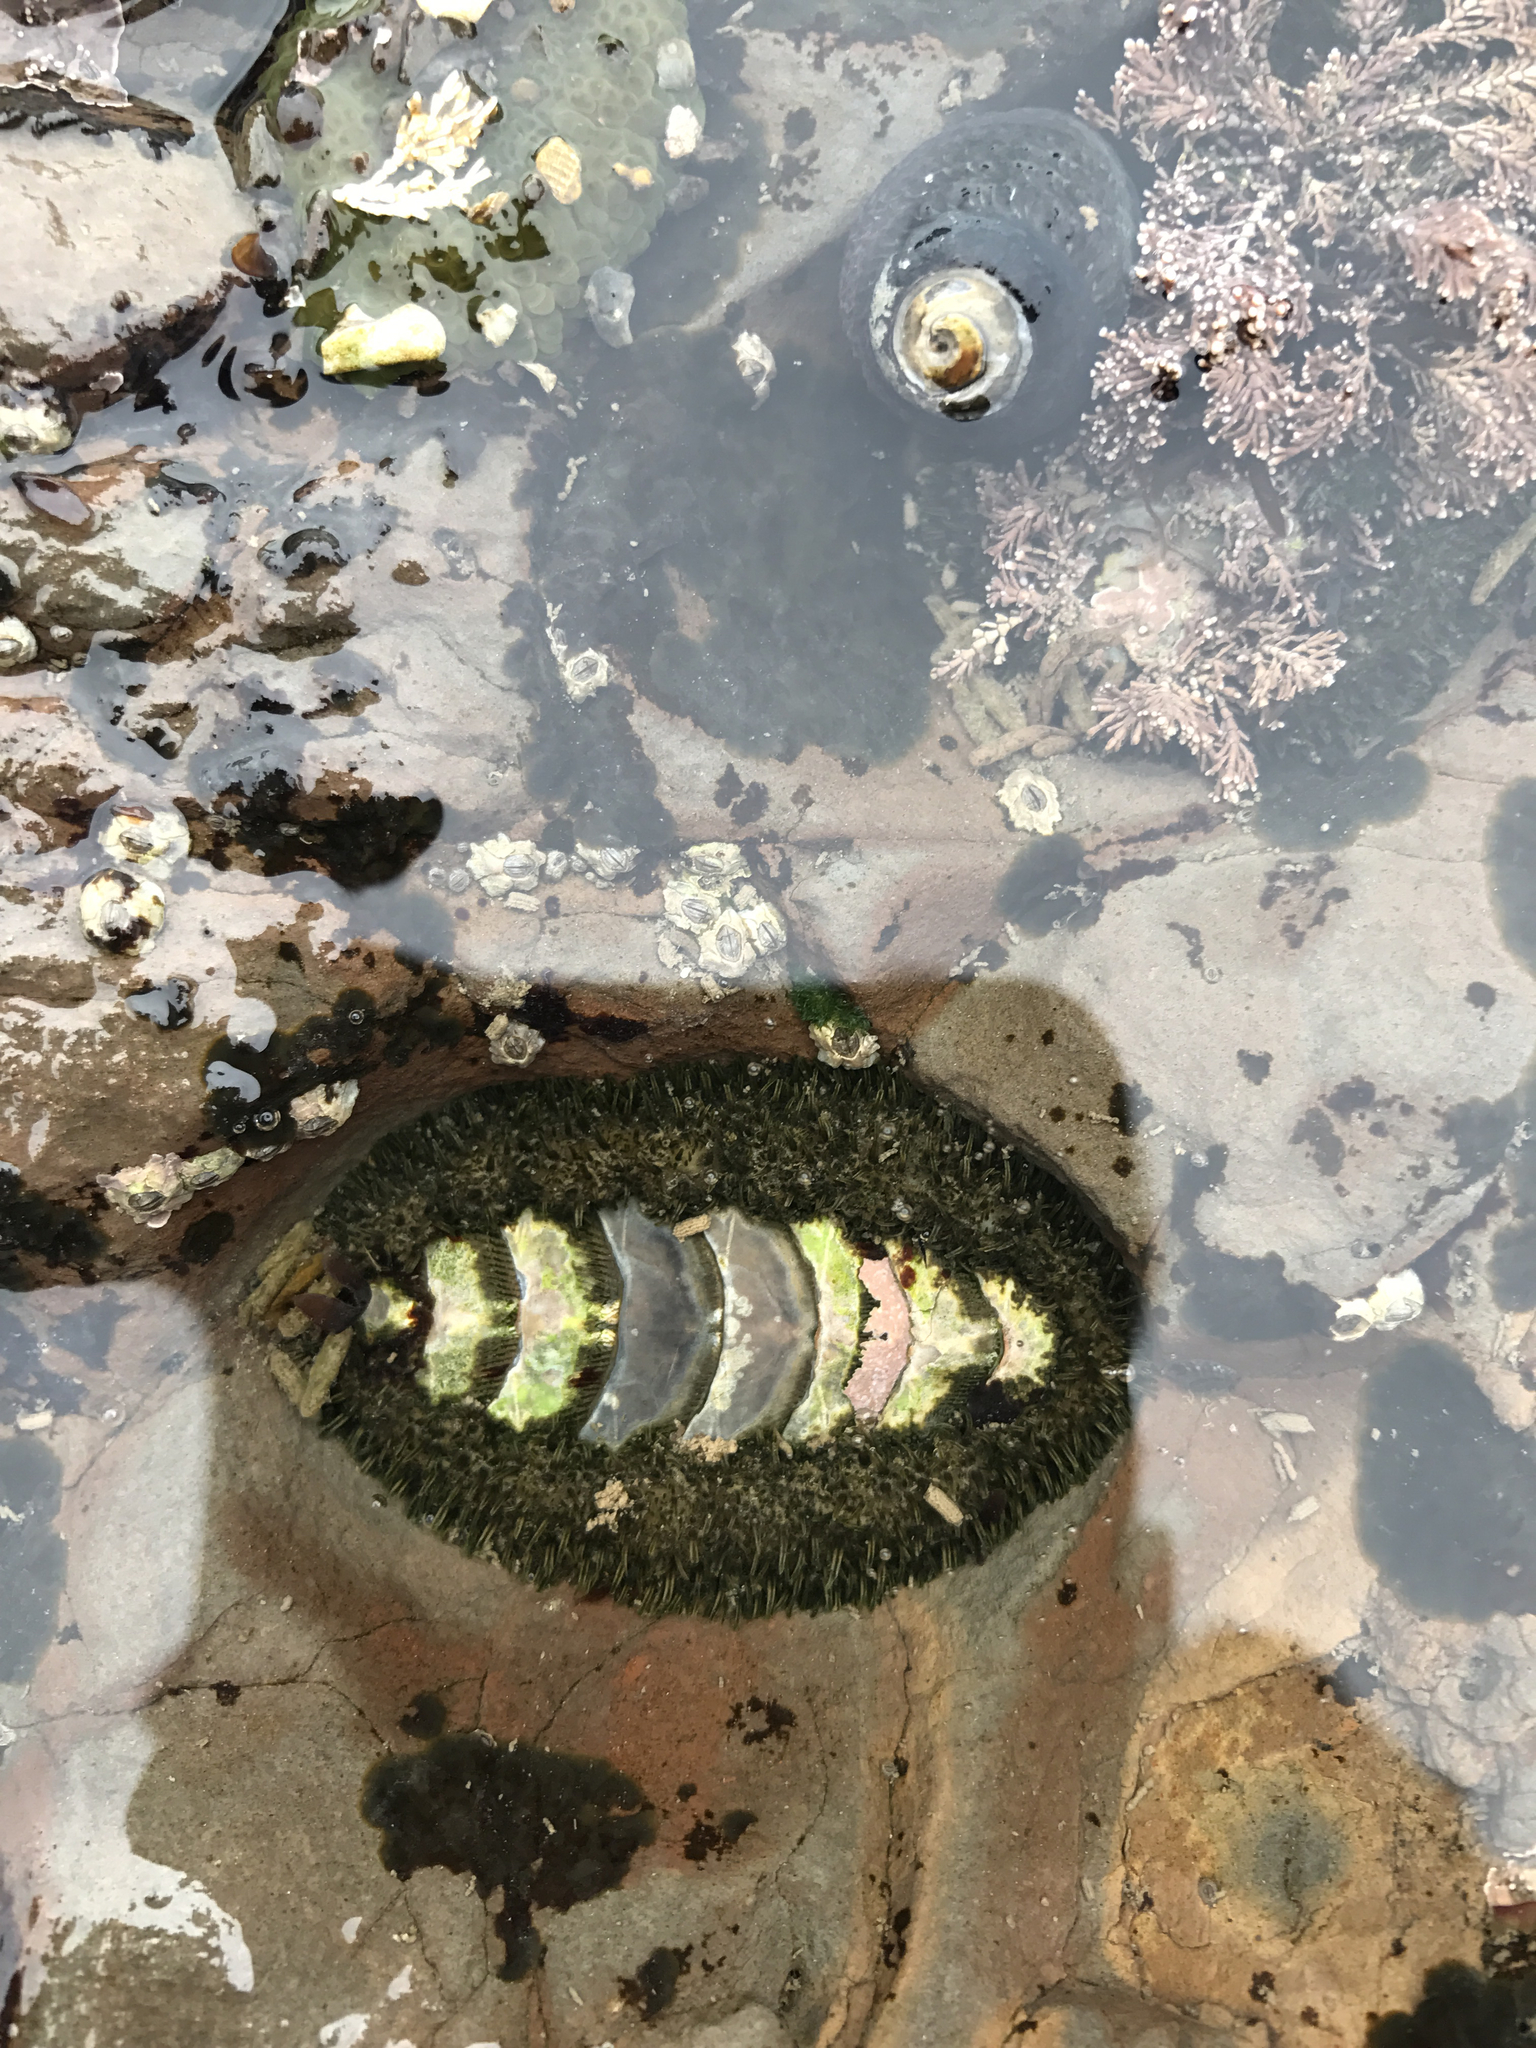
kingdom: Animalia
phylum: Mollusca
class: Polyplacophora
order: Chitonida
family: Mopaliidae
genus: Mopalia
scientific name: Mopalia muscosa
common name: Mossy chiton
